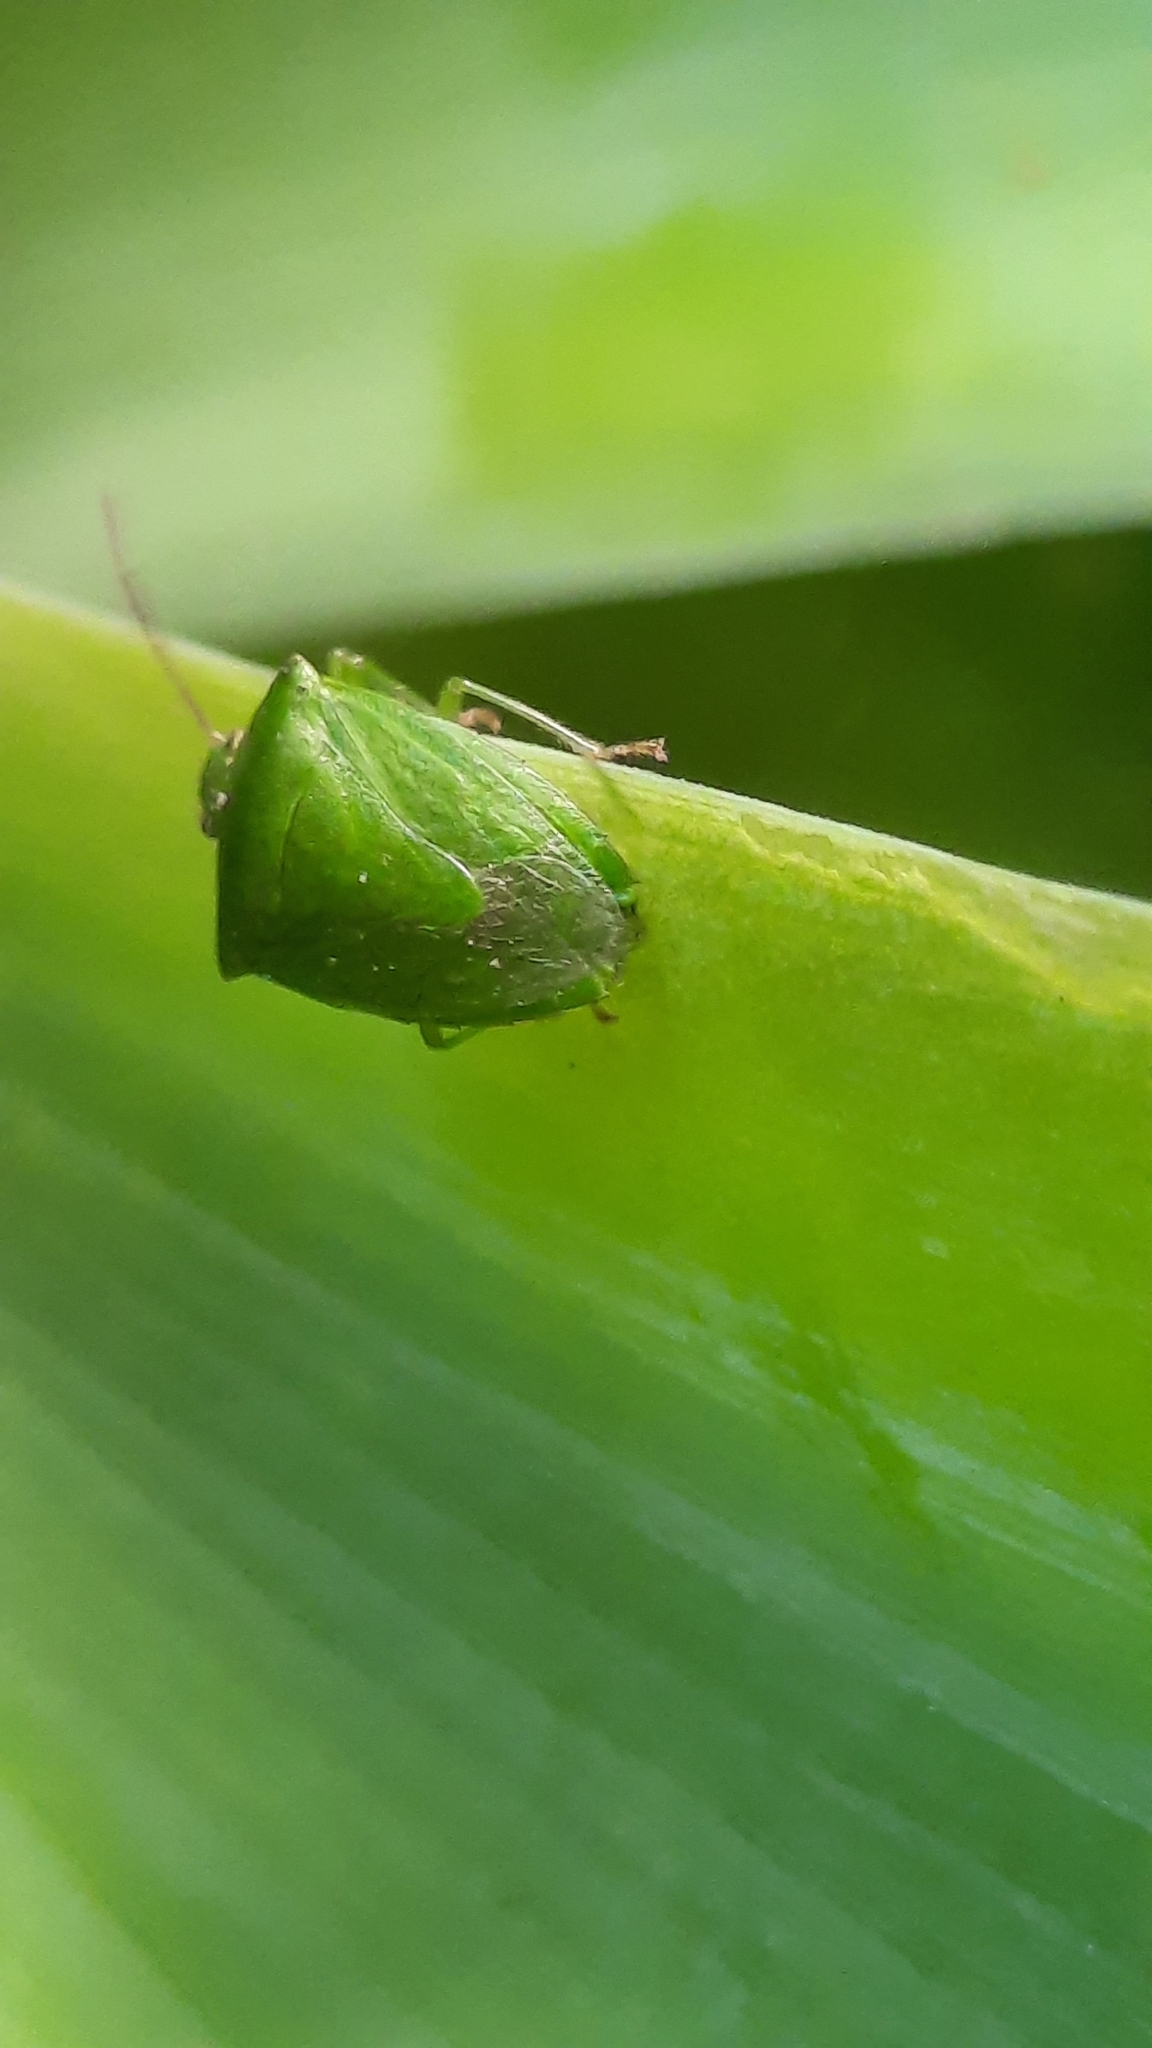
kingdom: Animalia
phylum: Arthropoda
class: Insecta
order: Hemiptera
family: Pentatomidae
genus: Cuspicona
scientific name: Cuspicona simplex
